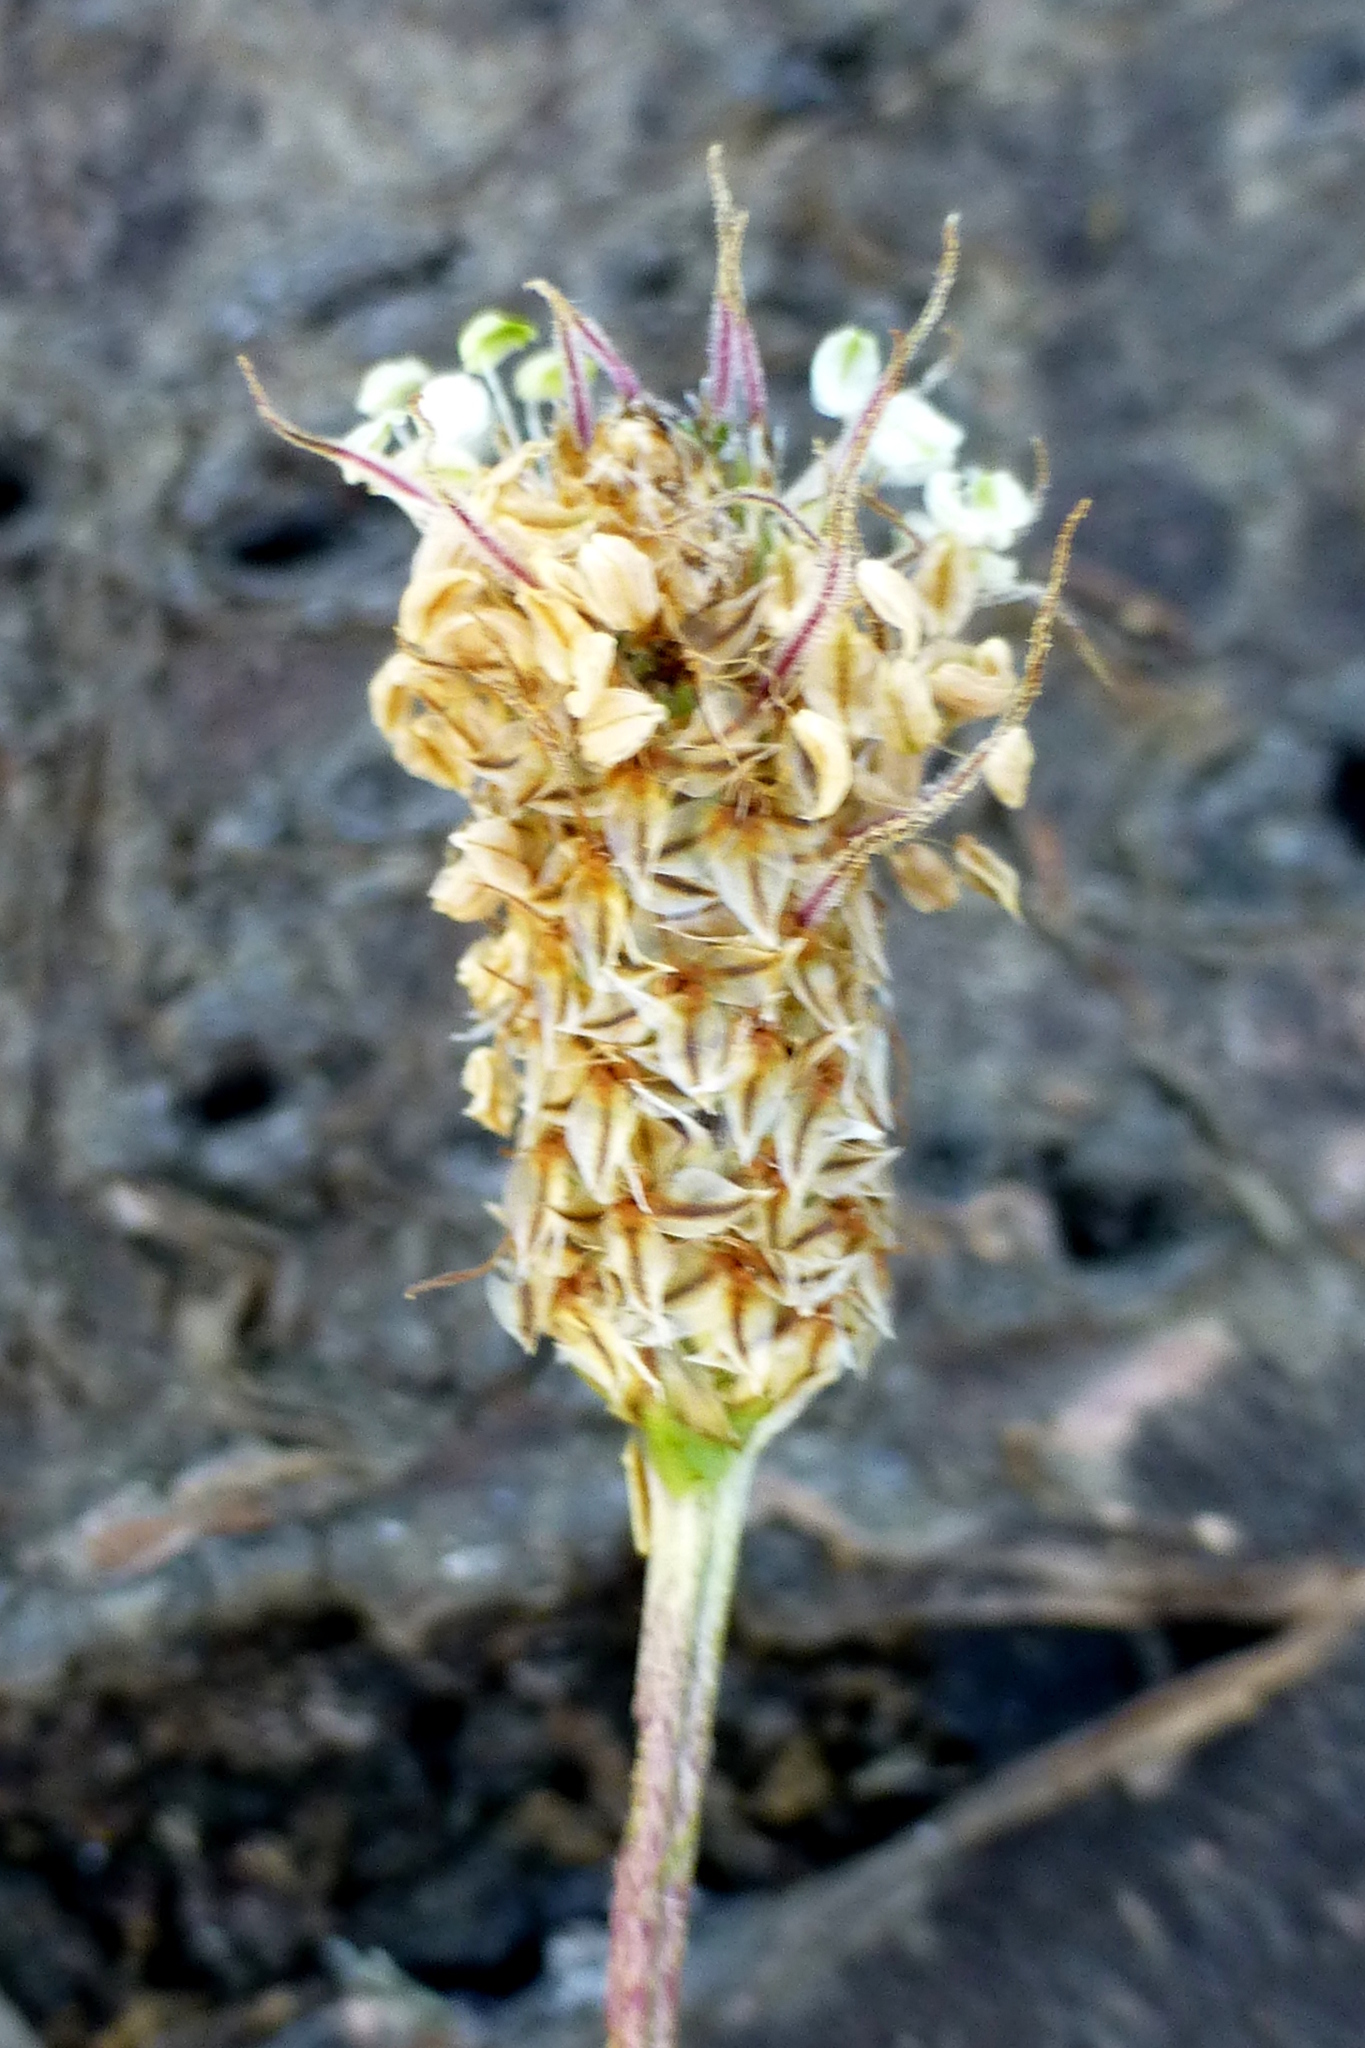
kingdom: Plantae
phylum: Tracheophyta
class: Magnoliopsida
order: Lamiales
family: Plantaginaceae
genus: Plantago
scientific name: Plantago lanceolata
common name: Ribwort plantain
